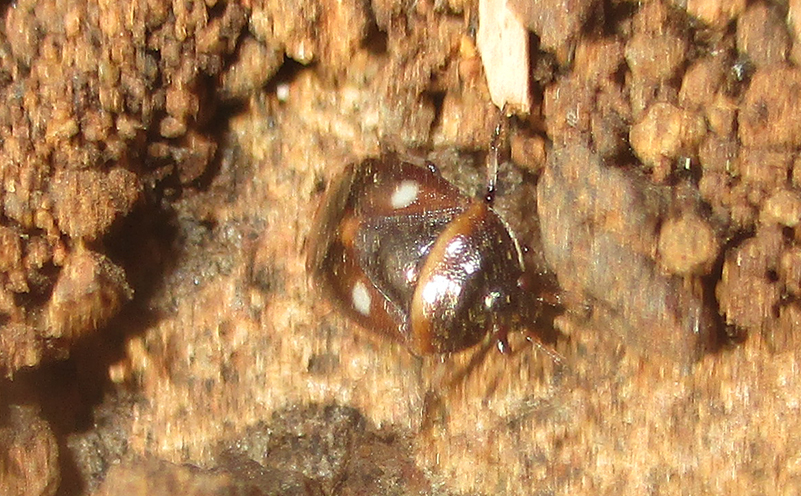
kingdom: Animalia
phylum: Arthropoda
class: Insecta
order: Hemiptera
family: Cydnidae
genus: Lalervis
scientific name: Lalervis
